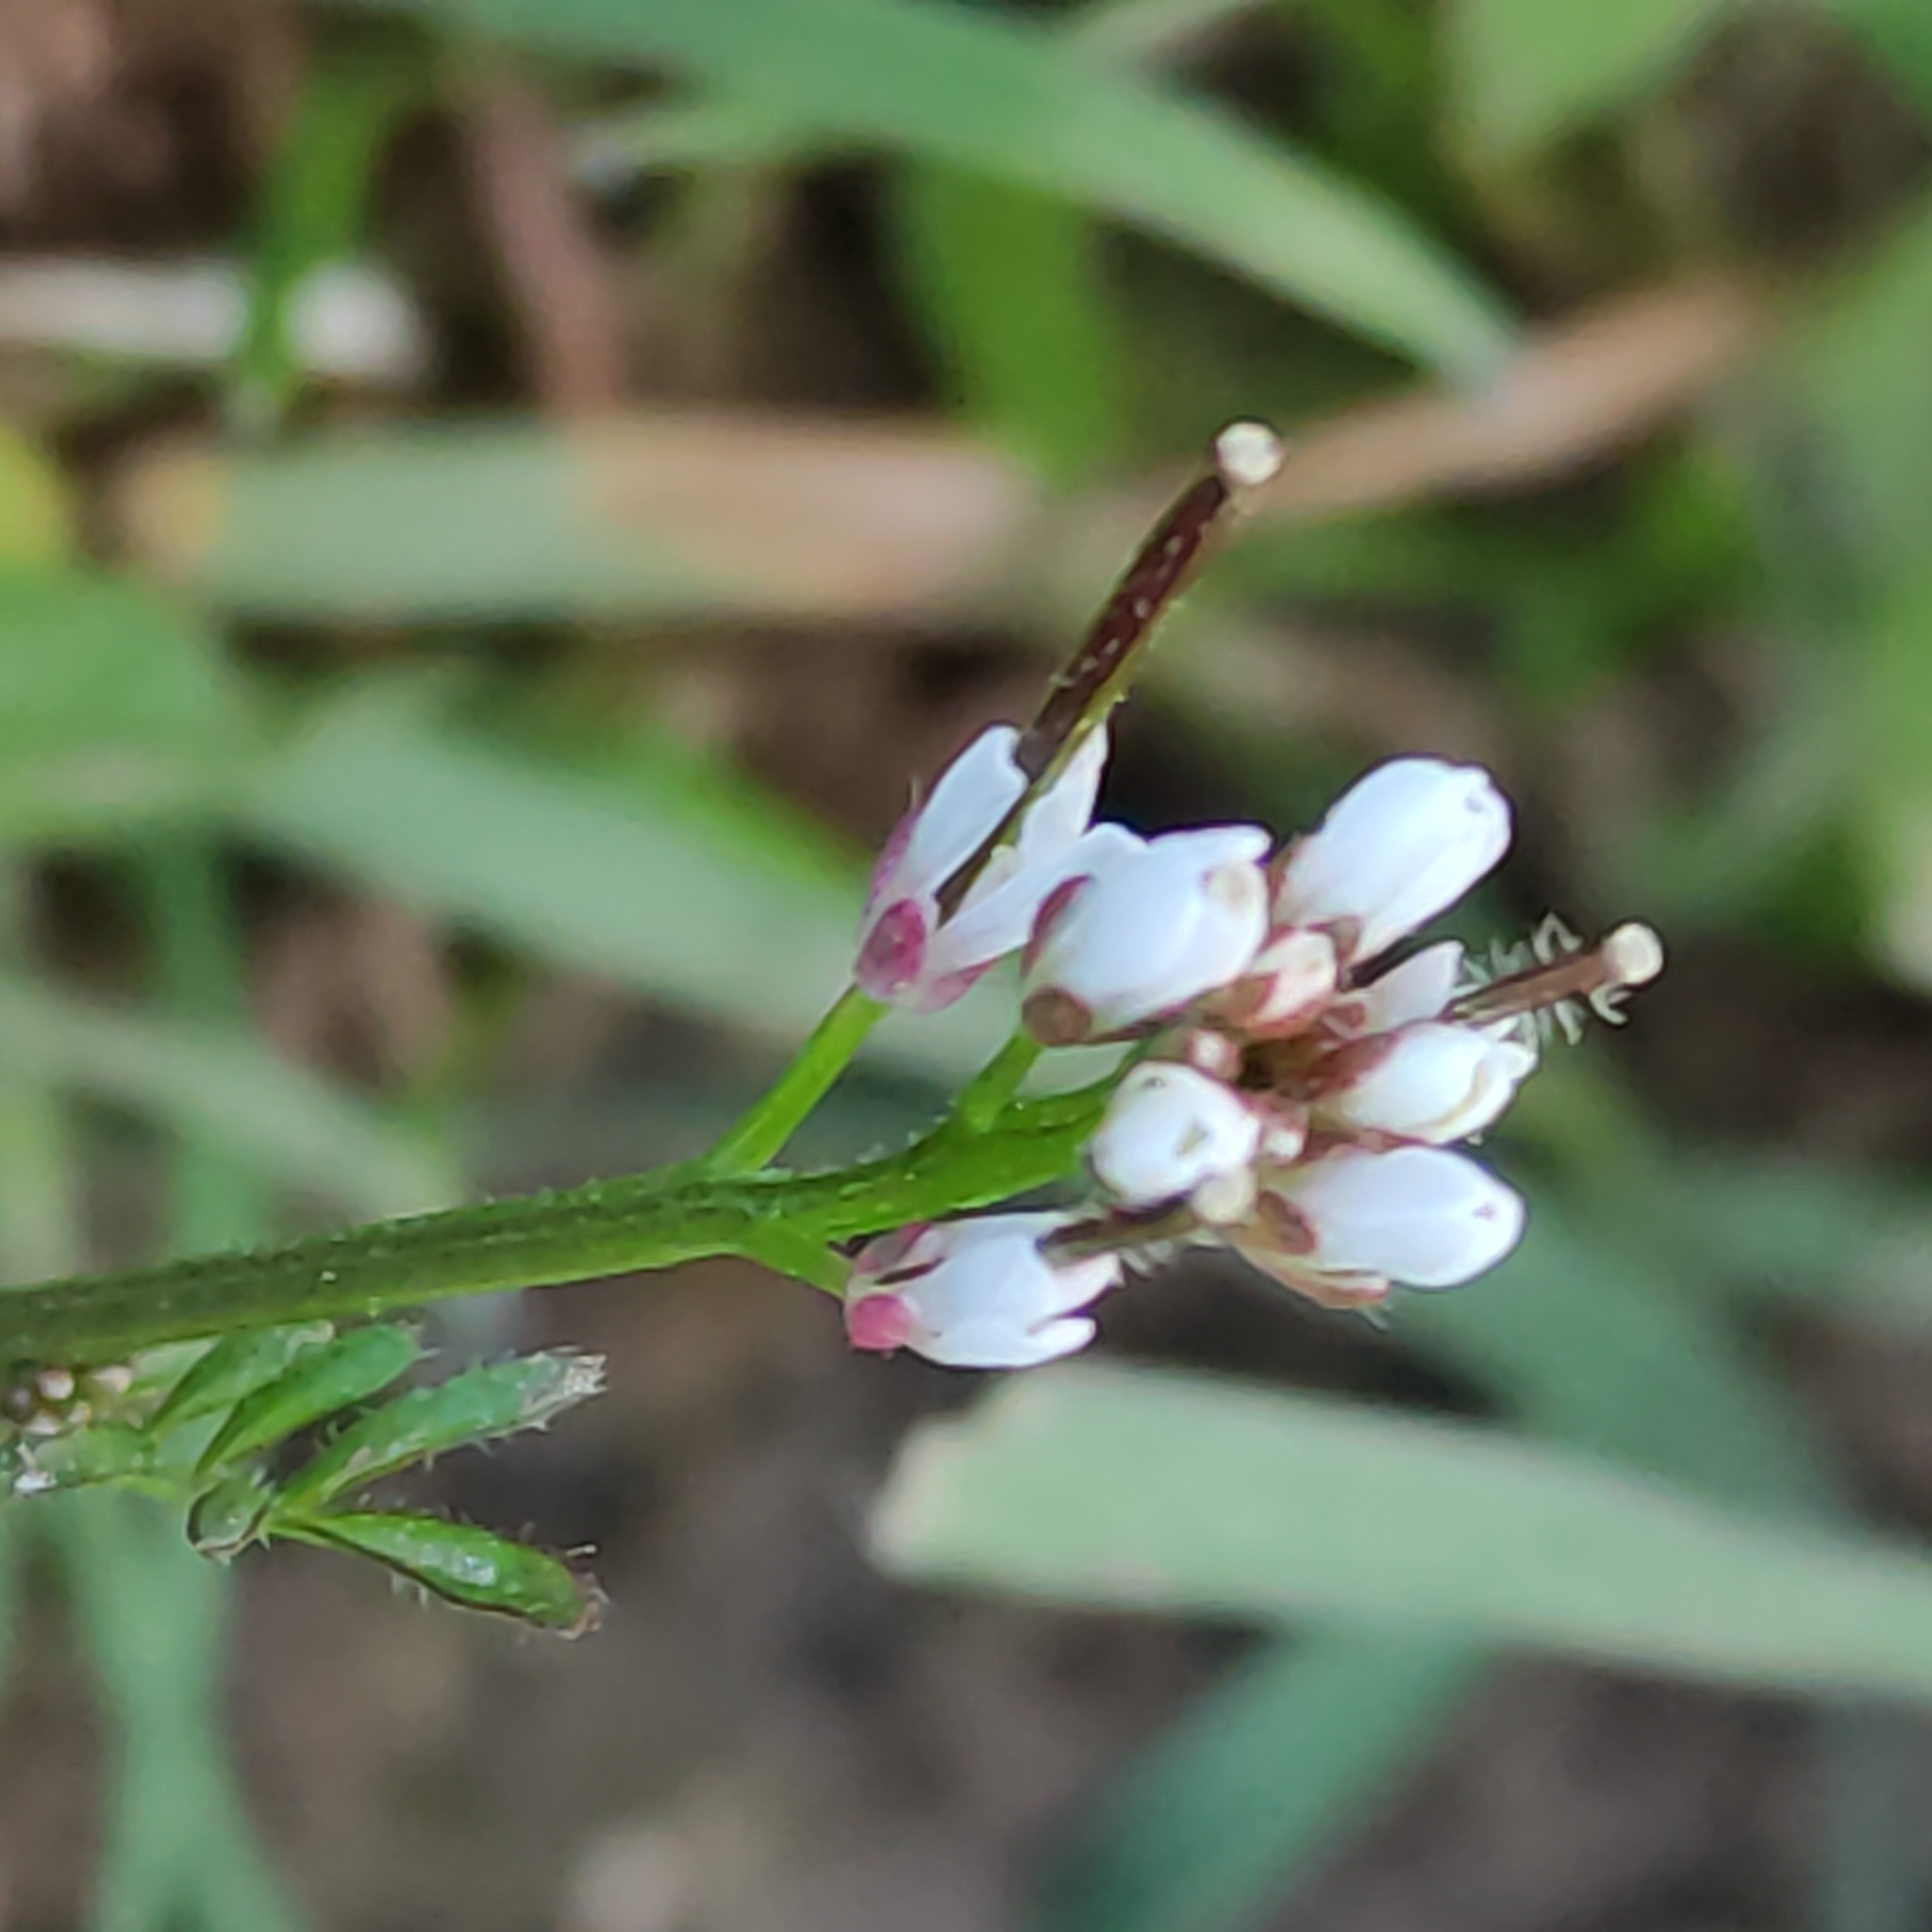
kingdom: Plantae
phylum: Tracheophyta
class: Magnoliopsida
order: Brassicales
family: Brassicaceae
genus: Cardamine
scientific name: Cardamine hirsuta
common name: Hairy bittercress
